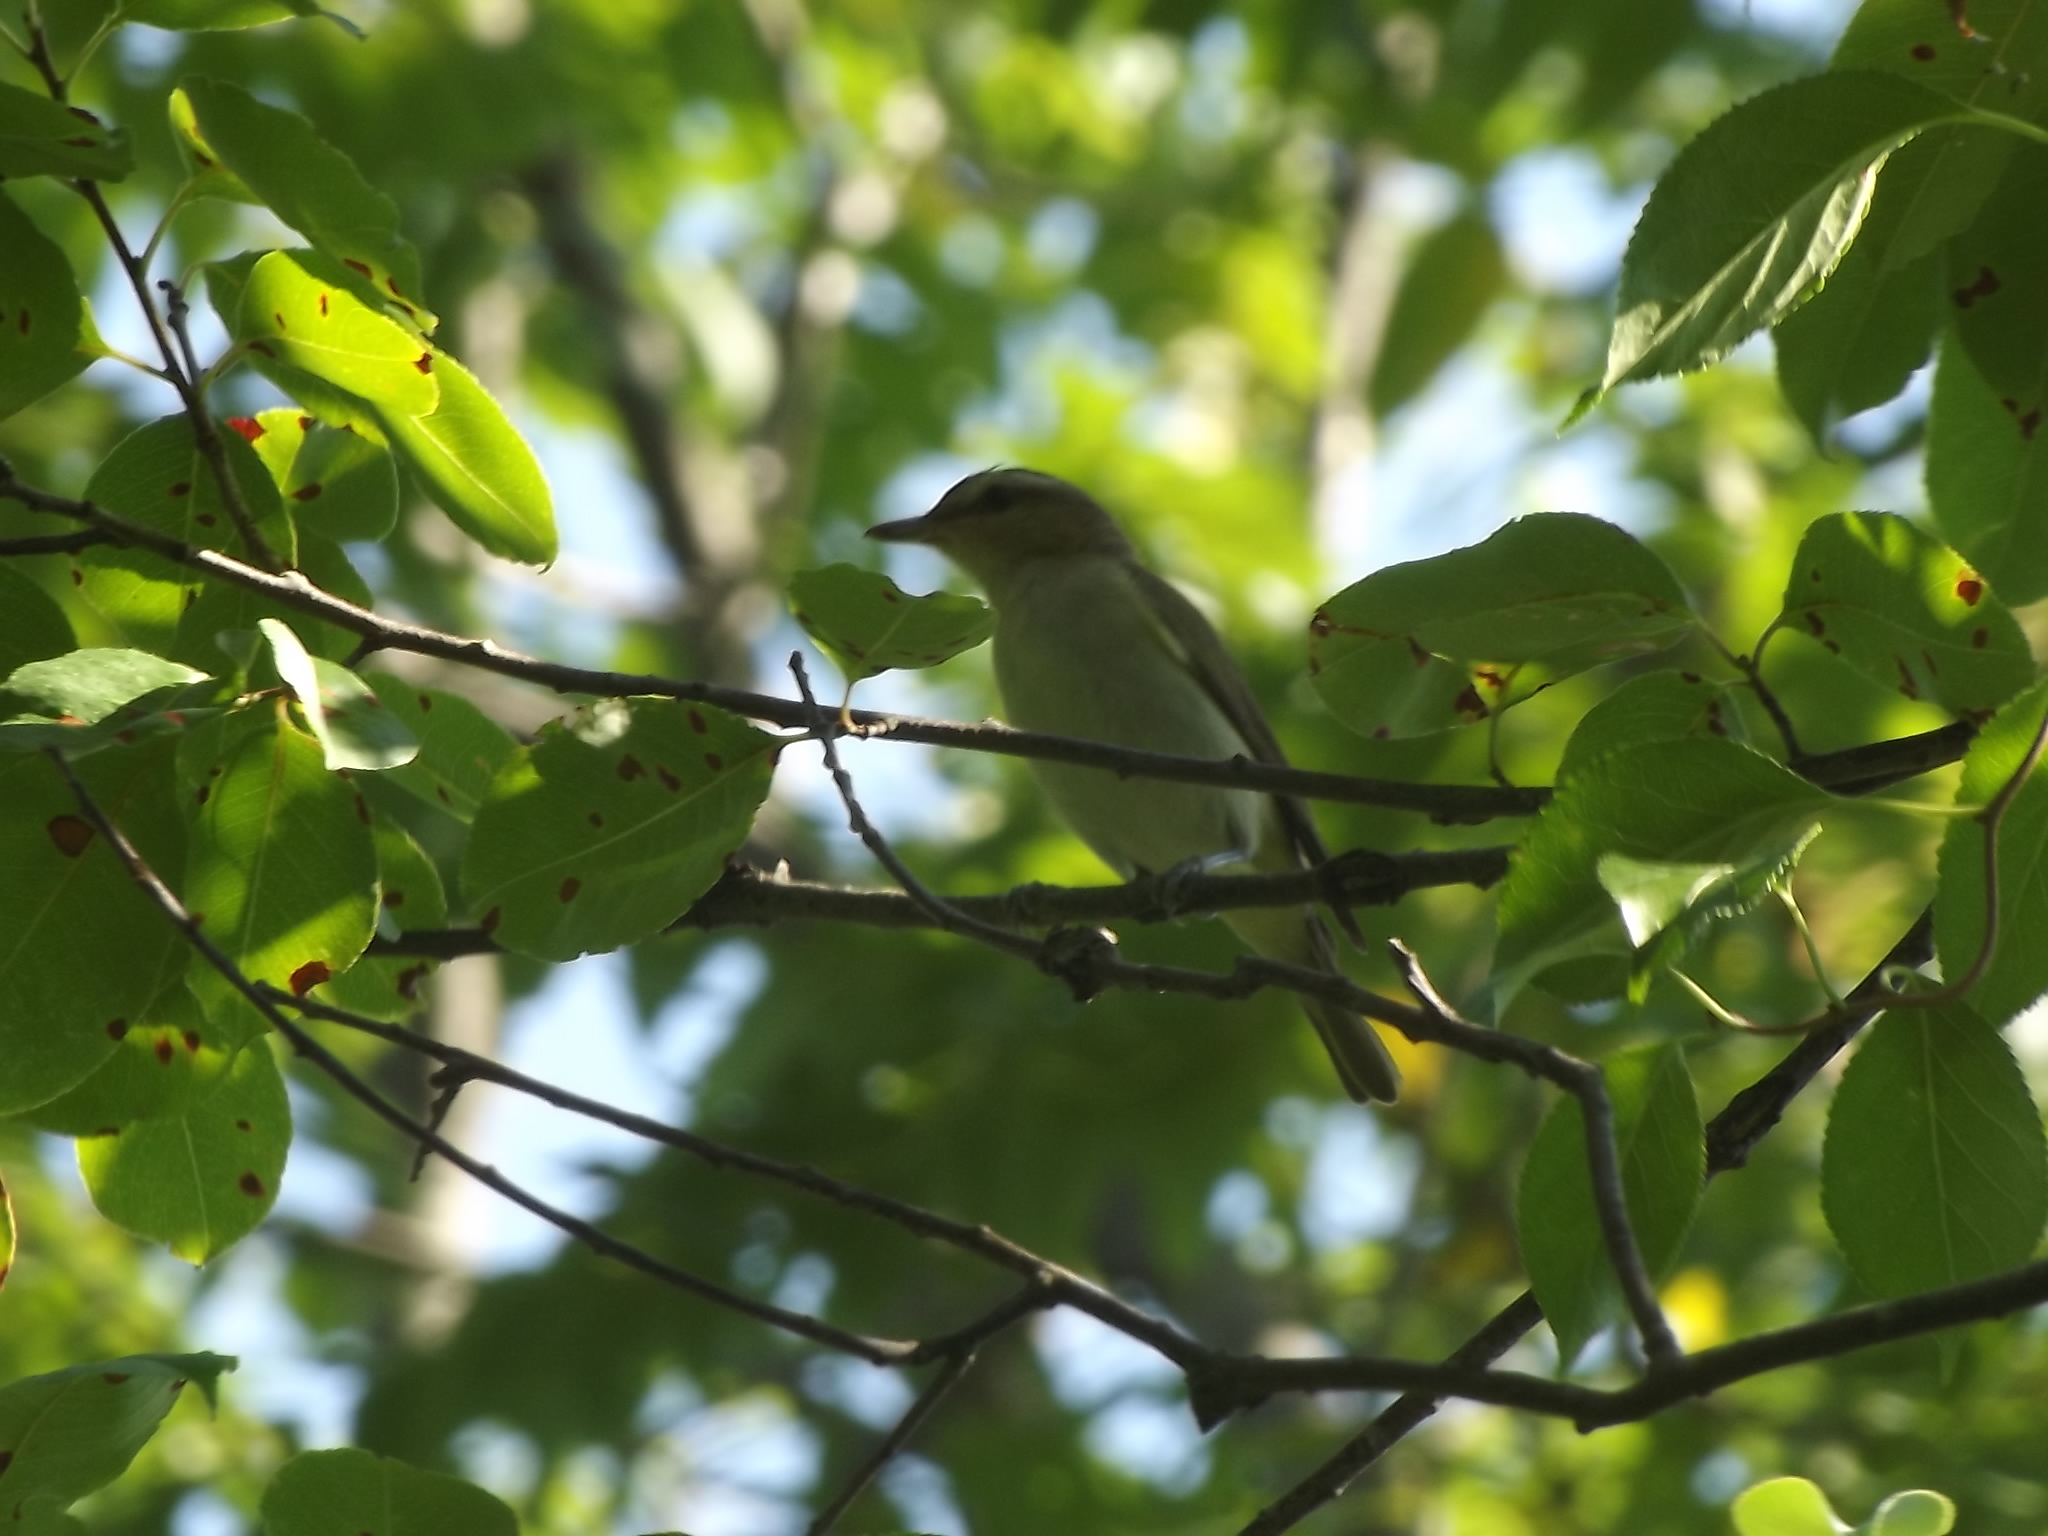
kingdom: Animalia
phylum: Chordata
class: Aves
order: Passeriformes
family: Vireonidae
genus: Vireo
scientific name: Vireo olivaceus
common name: Red-eyed vireo
